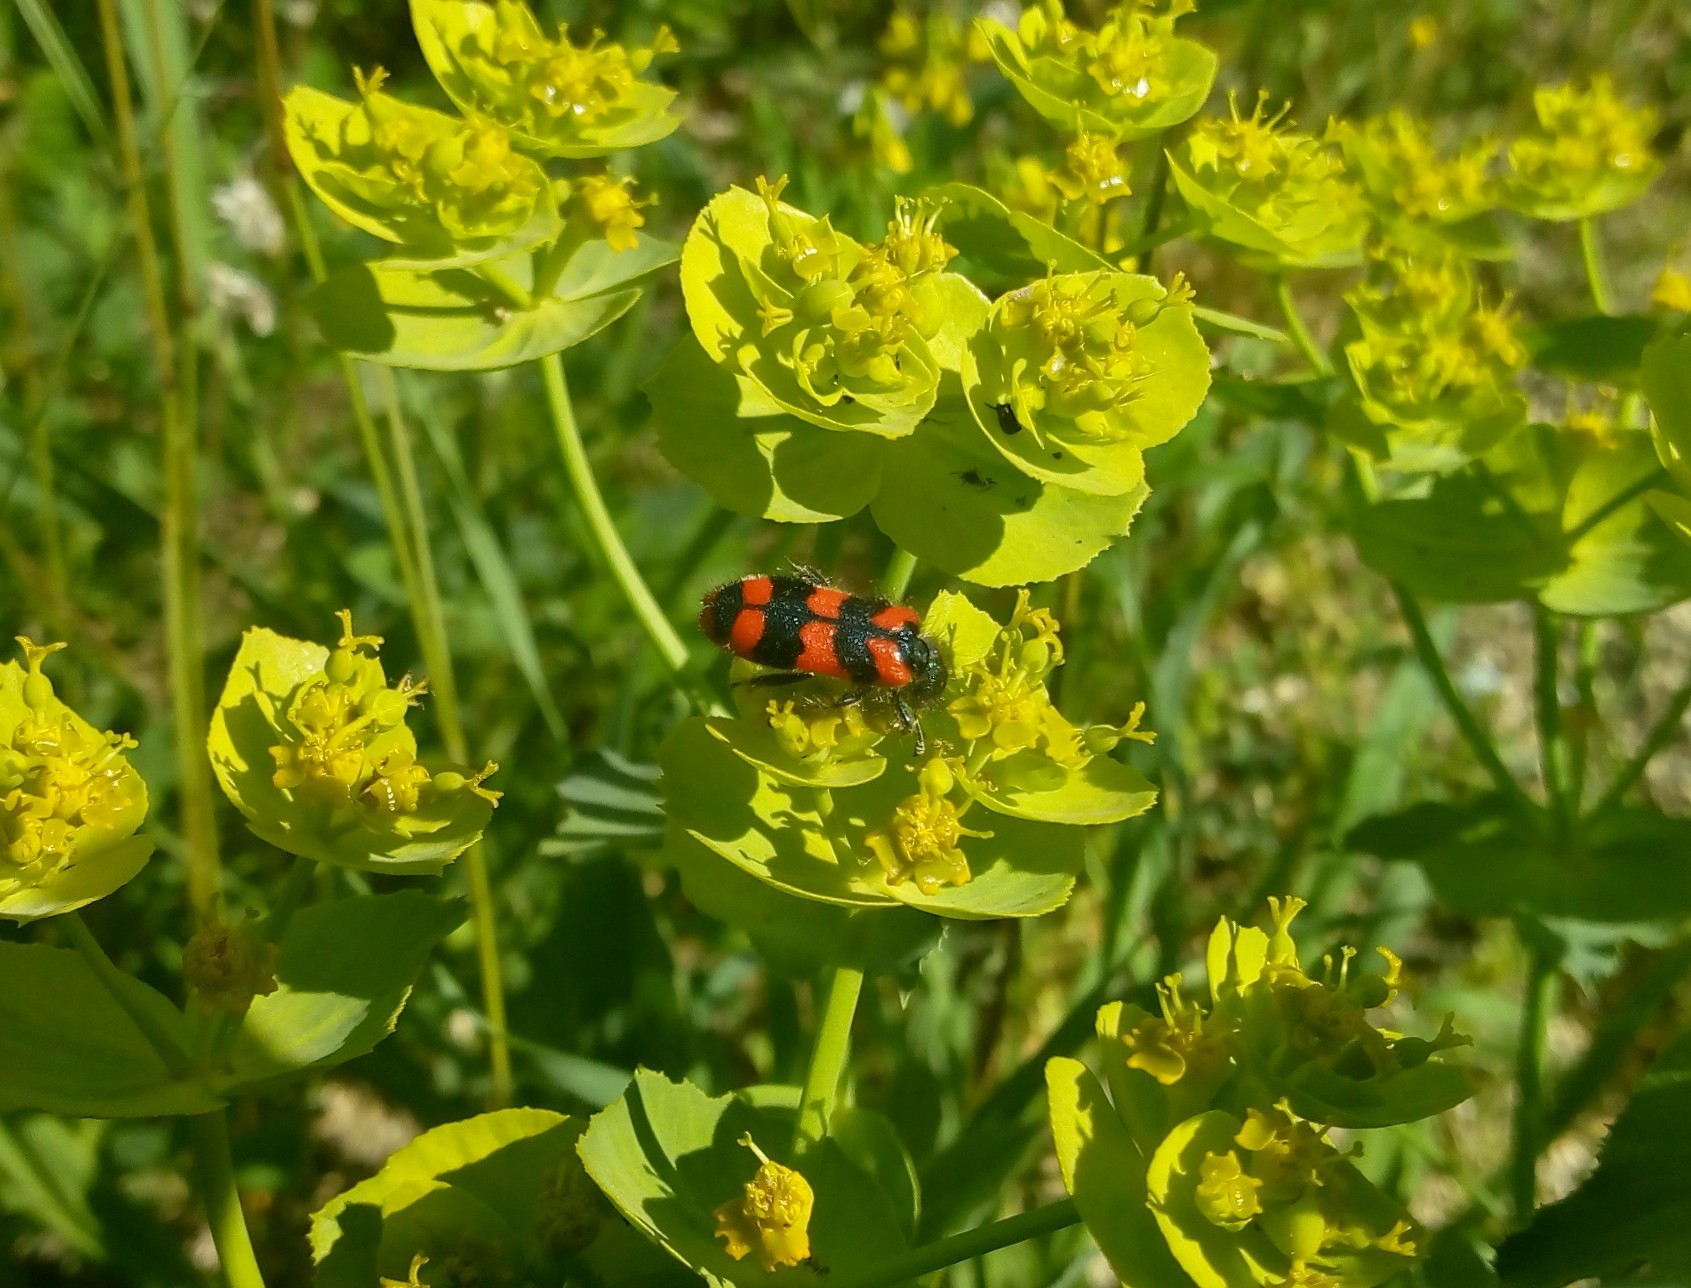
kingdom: Animalia
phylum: Arthropoda
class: Insecta
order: Coleoptera
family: Cleridae
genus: Trichodes
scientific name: Trichodes alvearius
